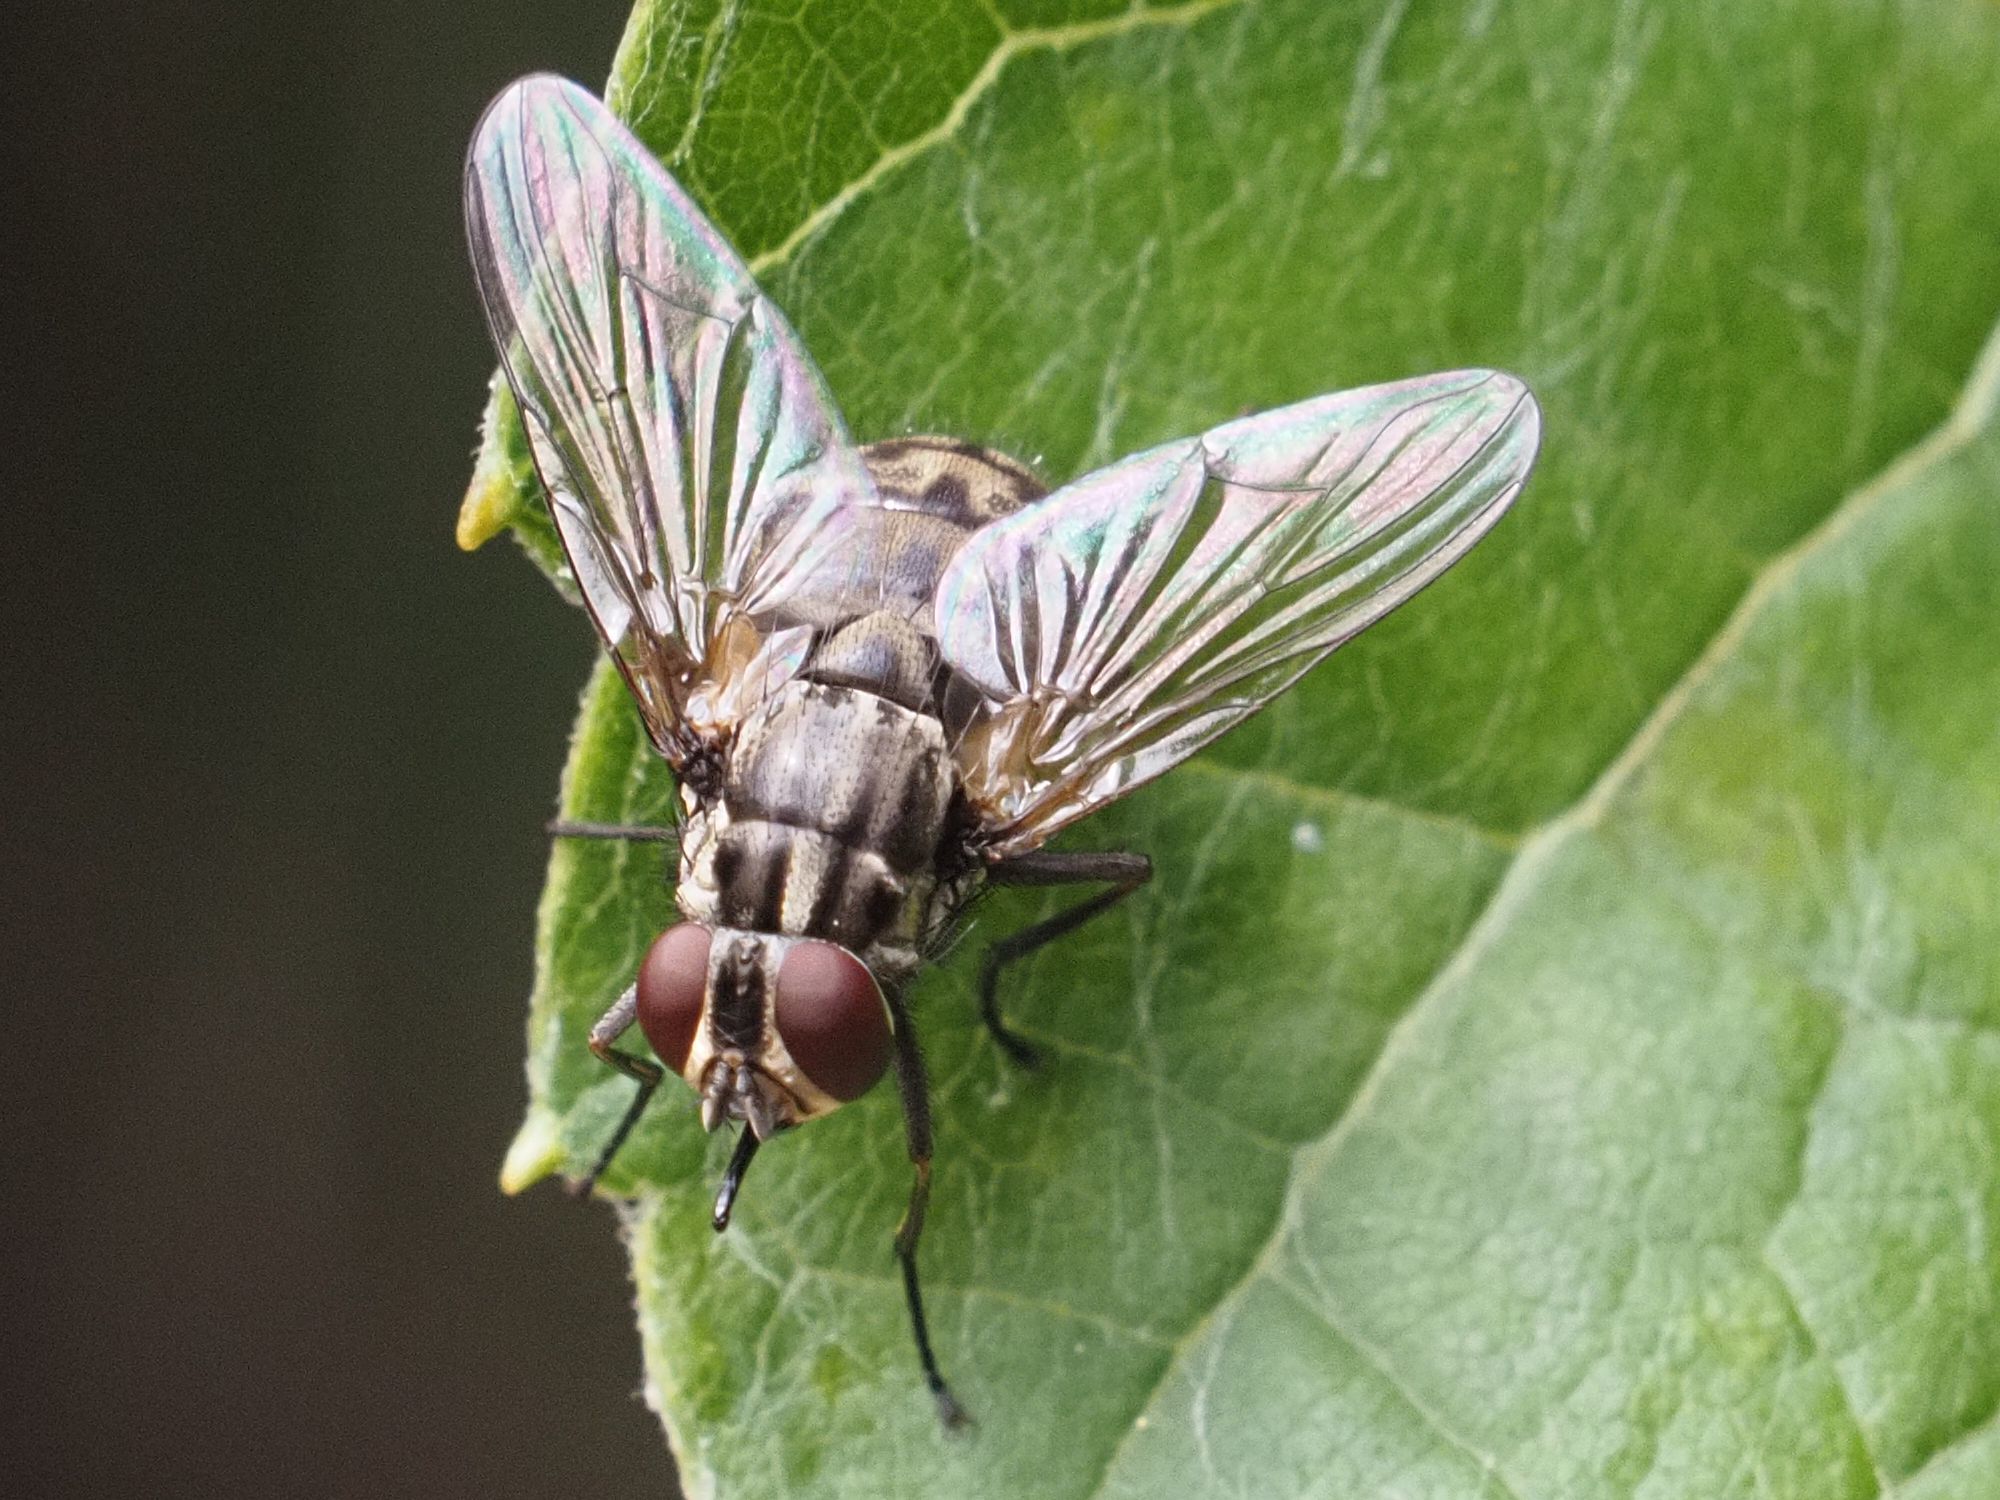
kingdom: Animalia
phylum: Arthropoda
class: Insecta
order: Diptera
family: Muscidae
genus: Stomoxys
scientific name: Stomoxys calcitrans
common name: Stable fly
